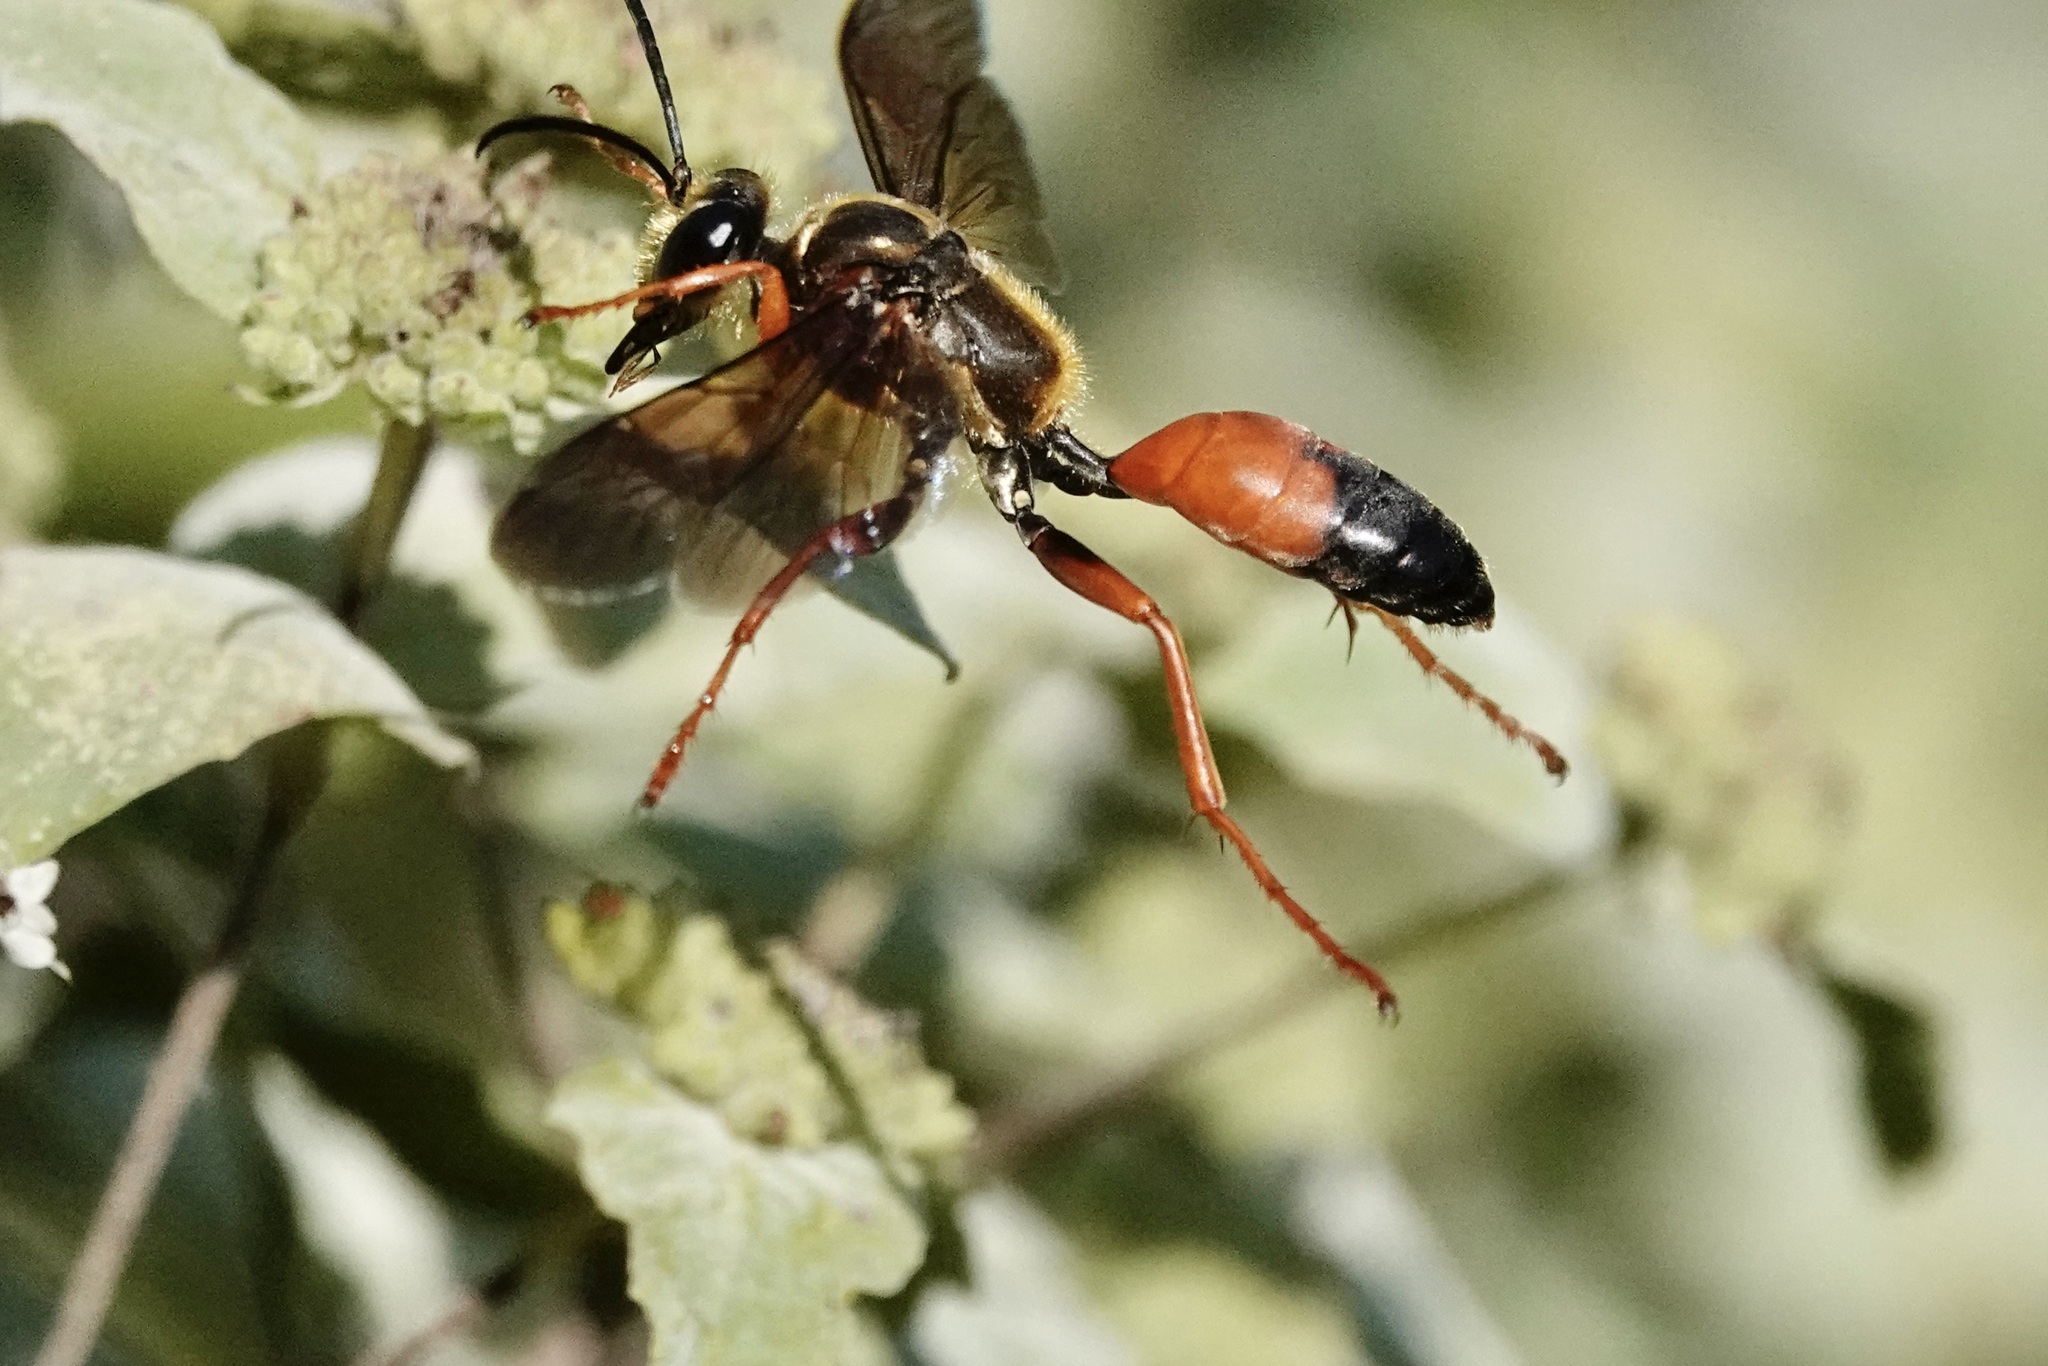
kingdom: Animalia
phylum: Arthropoda
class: Insecta
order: Hymenoptera
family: Sphecidae
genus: Sphex
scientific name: Sphex ichneumoneus
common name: Great golden digger wasp
